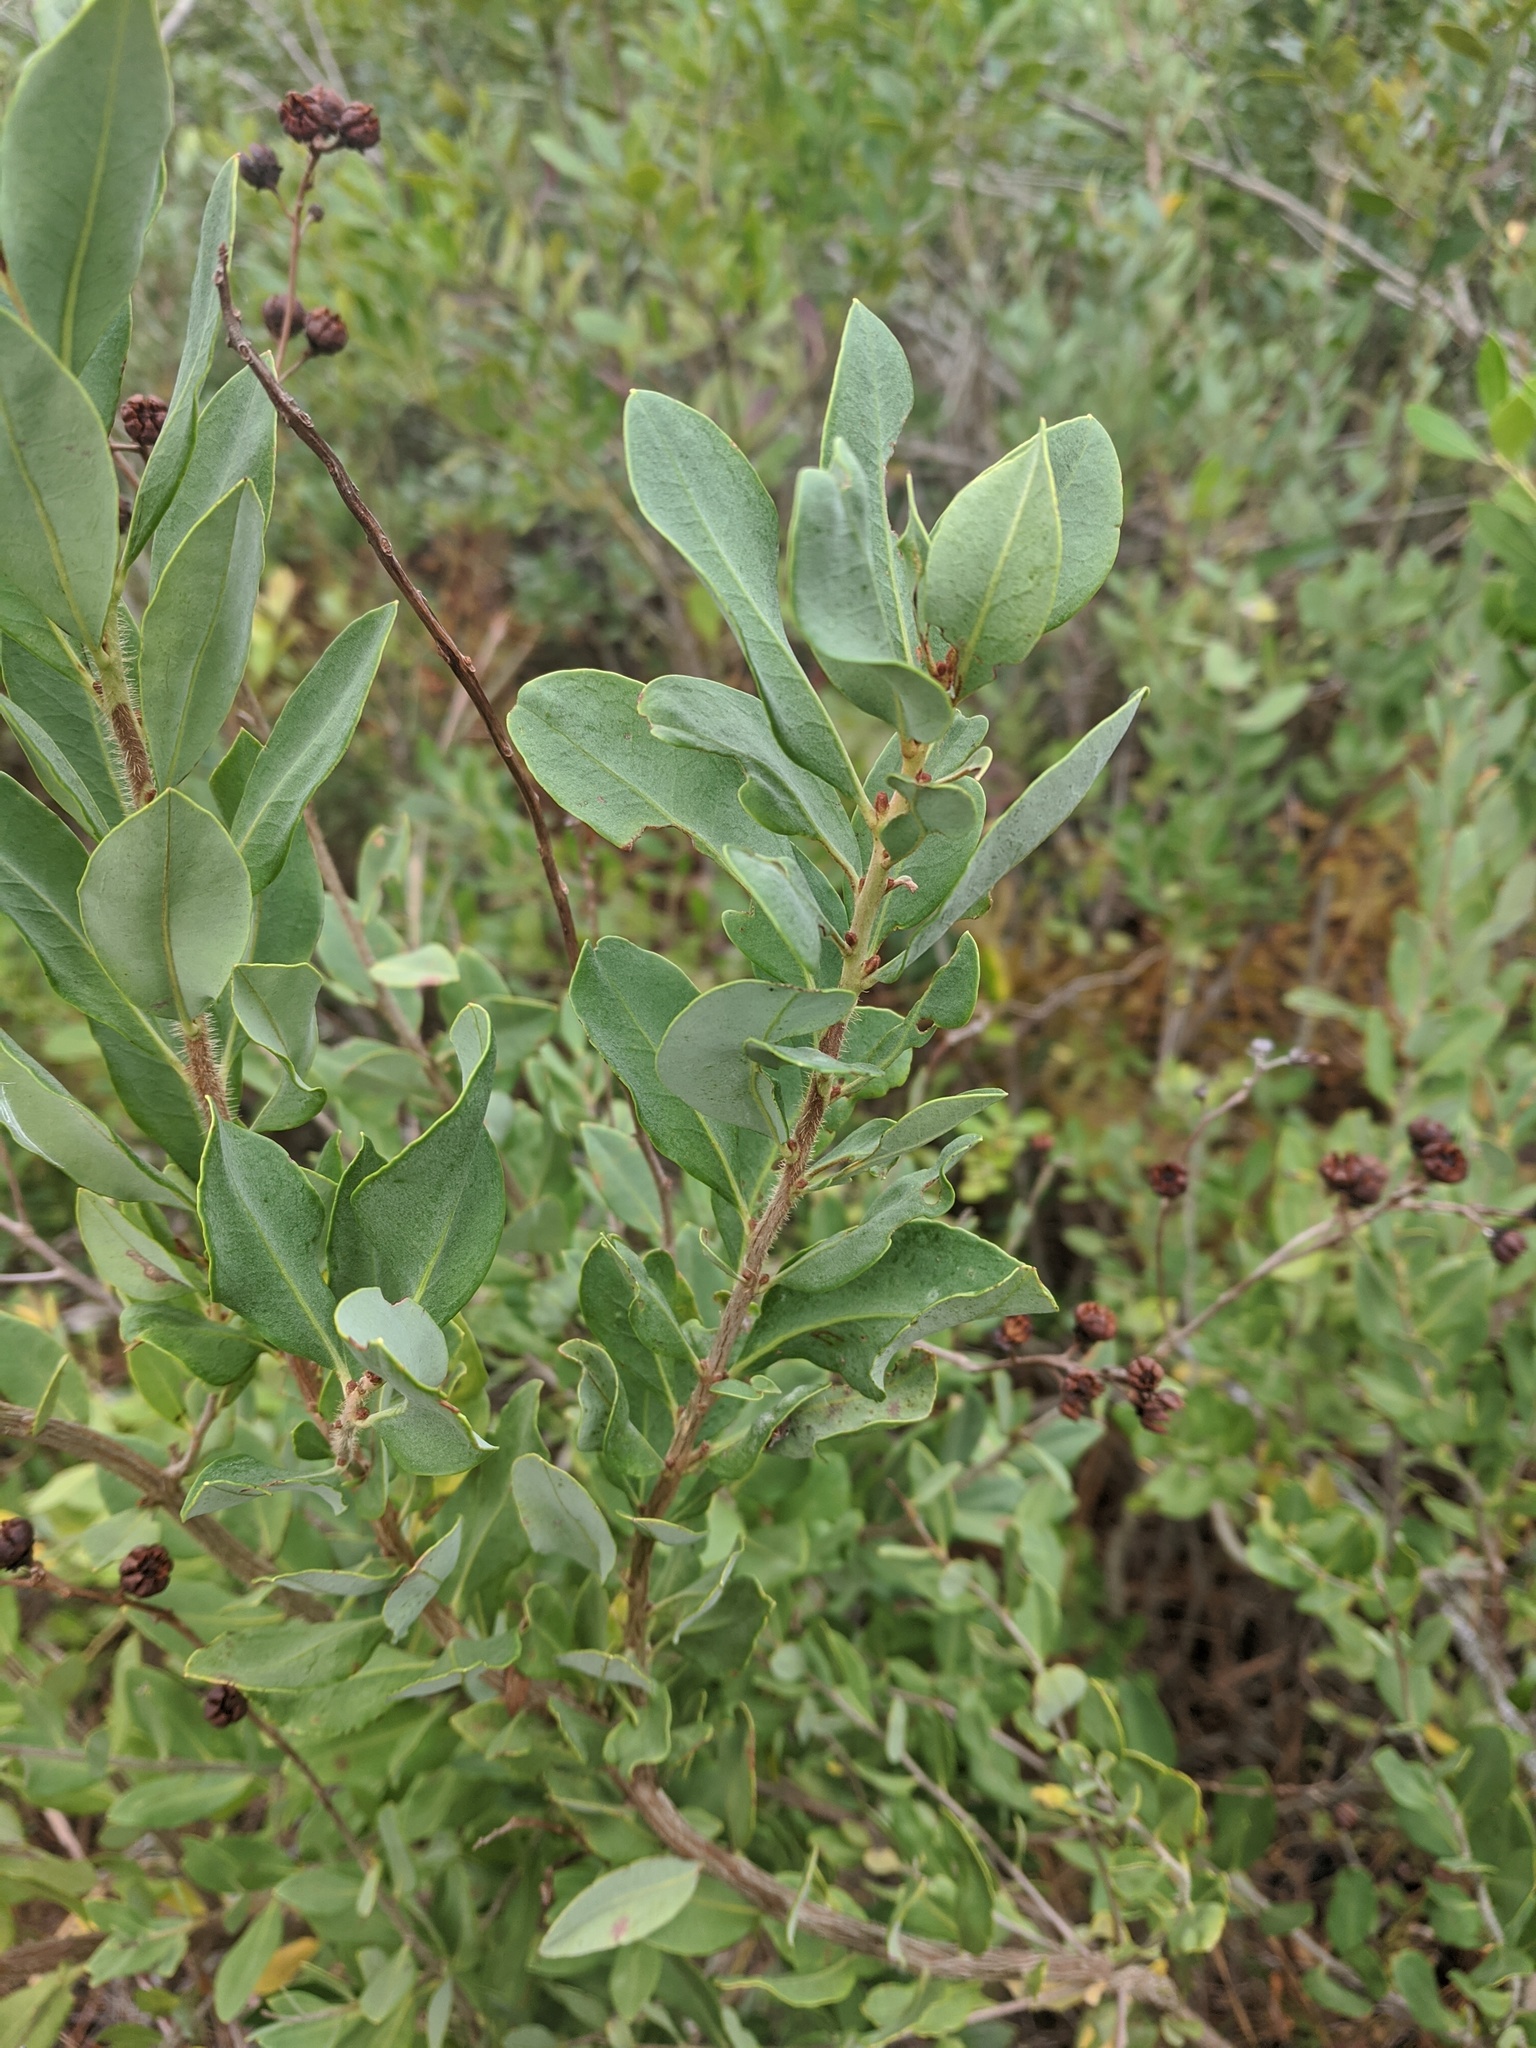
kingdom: Plantae
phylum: Tracheophyta
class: Magnoliopsida
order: Ericales
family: Ericaceae
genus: Bejaria
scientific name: Bejaria racemosa
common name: Tarflower
